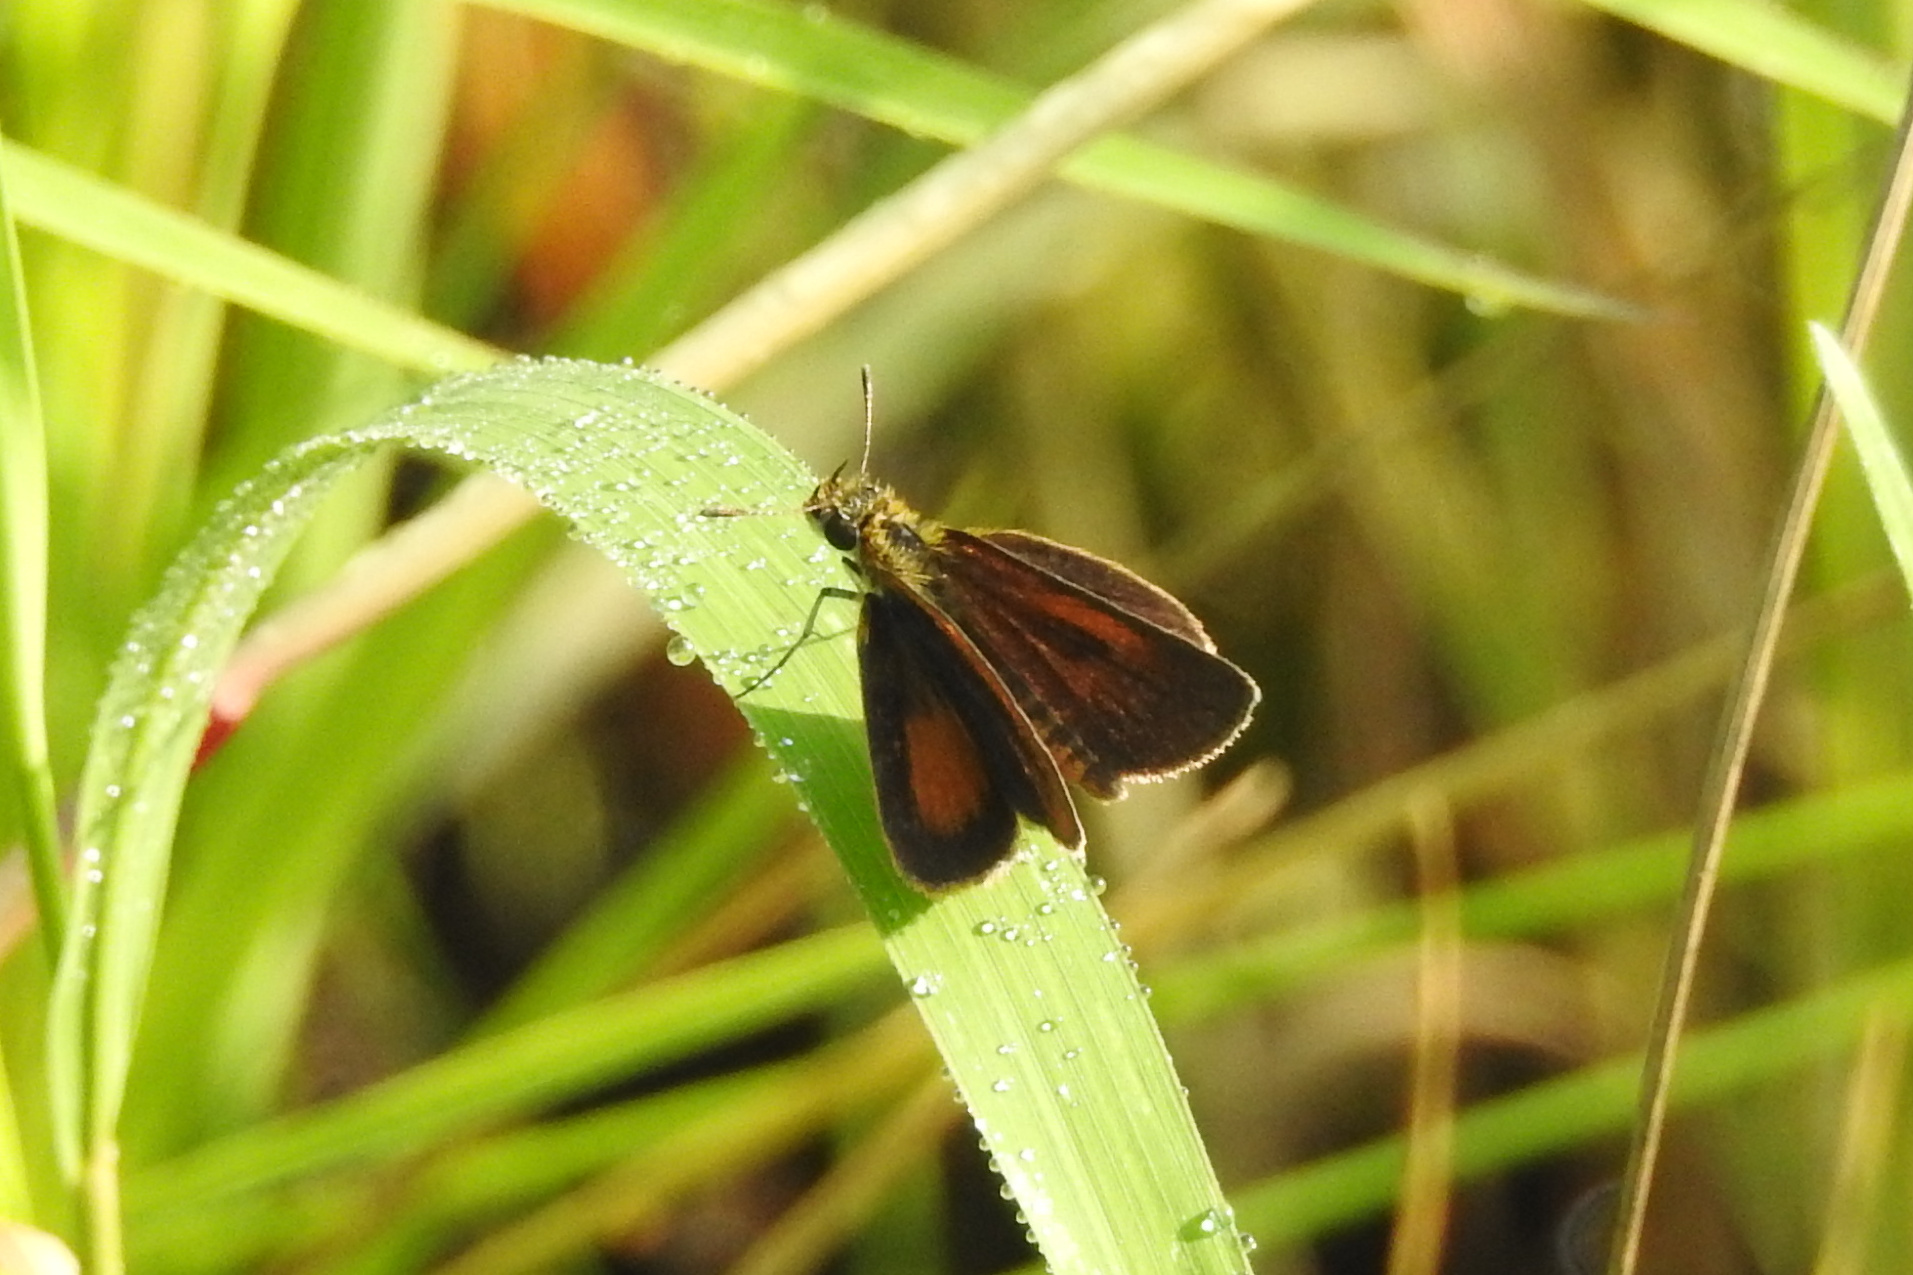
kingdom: Animalia
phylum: Arthropoda
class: Insecta
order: Lepidoptera
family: Hesperiidae
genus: Ancyloxypha
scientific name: Ancyloxypha numitor
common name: Least skipper
